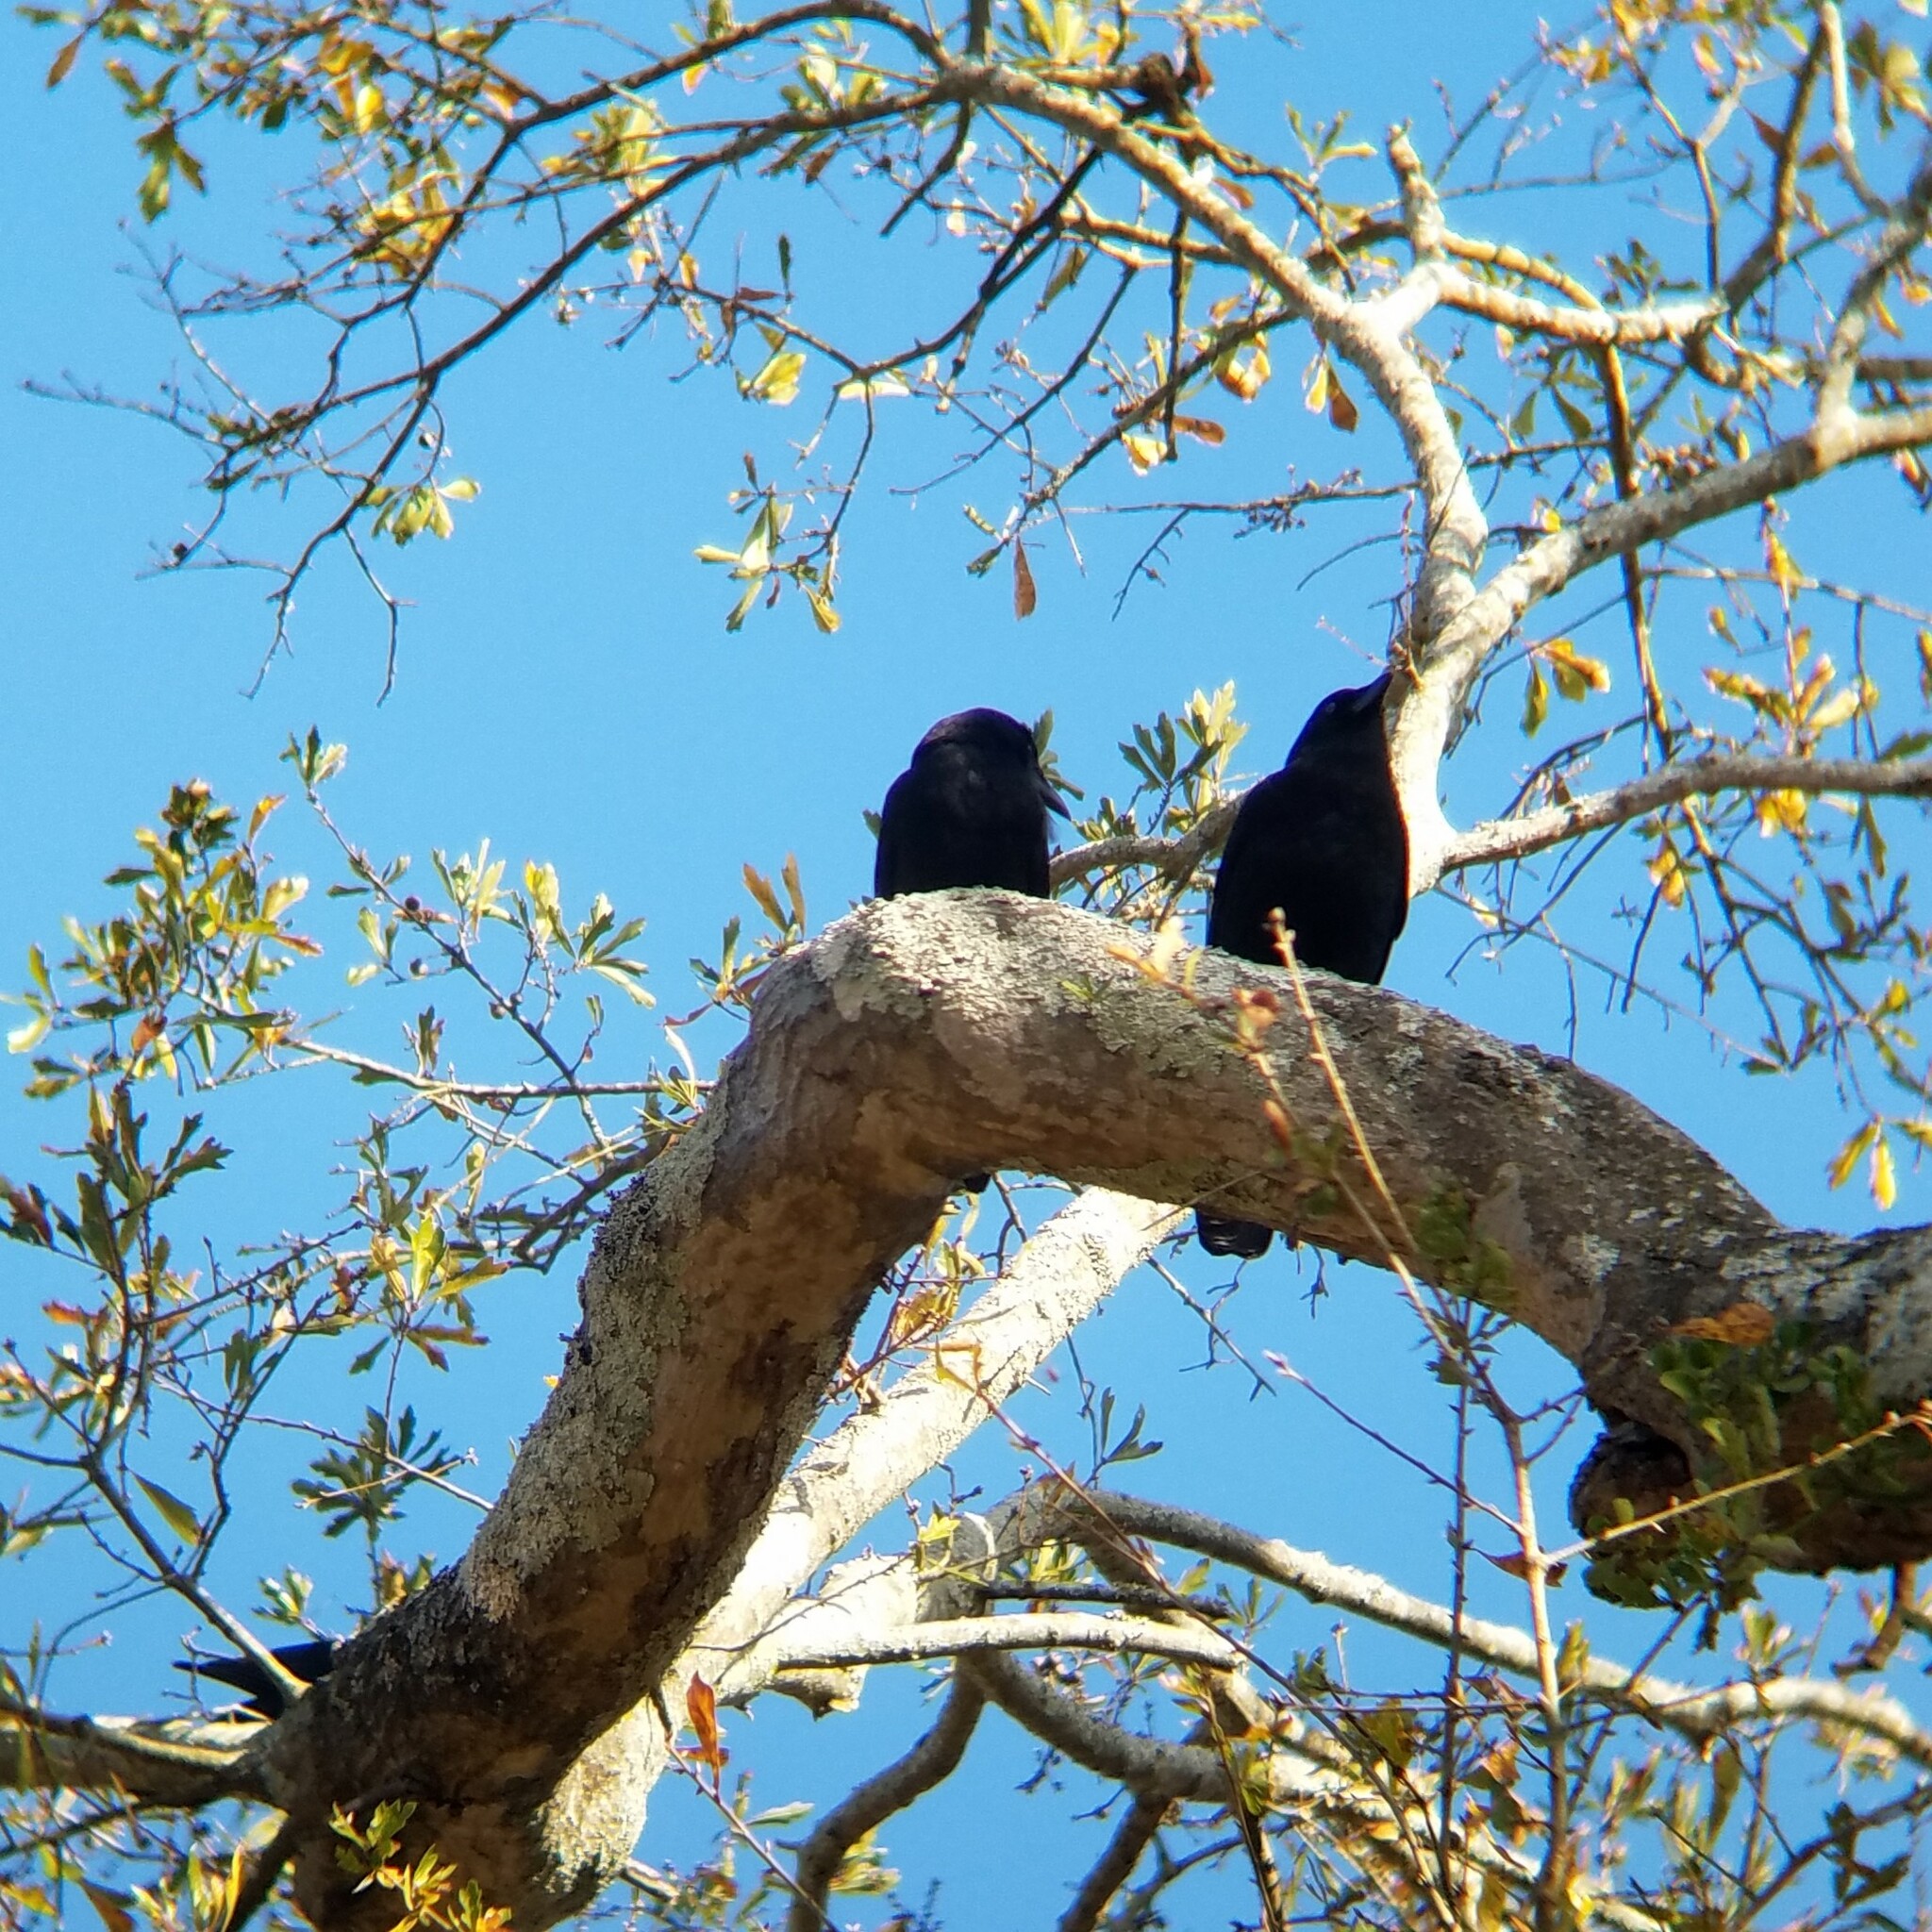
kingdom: Animalia
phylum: Chordata
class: Aves
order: Passeriformes
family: Corvidae
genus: Corvus
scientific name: Corvus brachyrhynchos
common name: American crow
